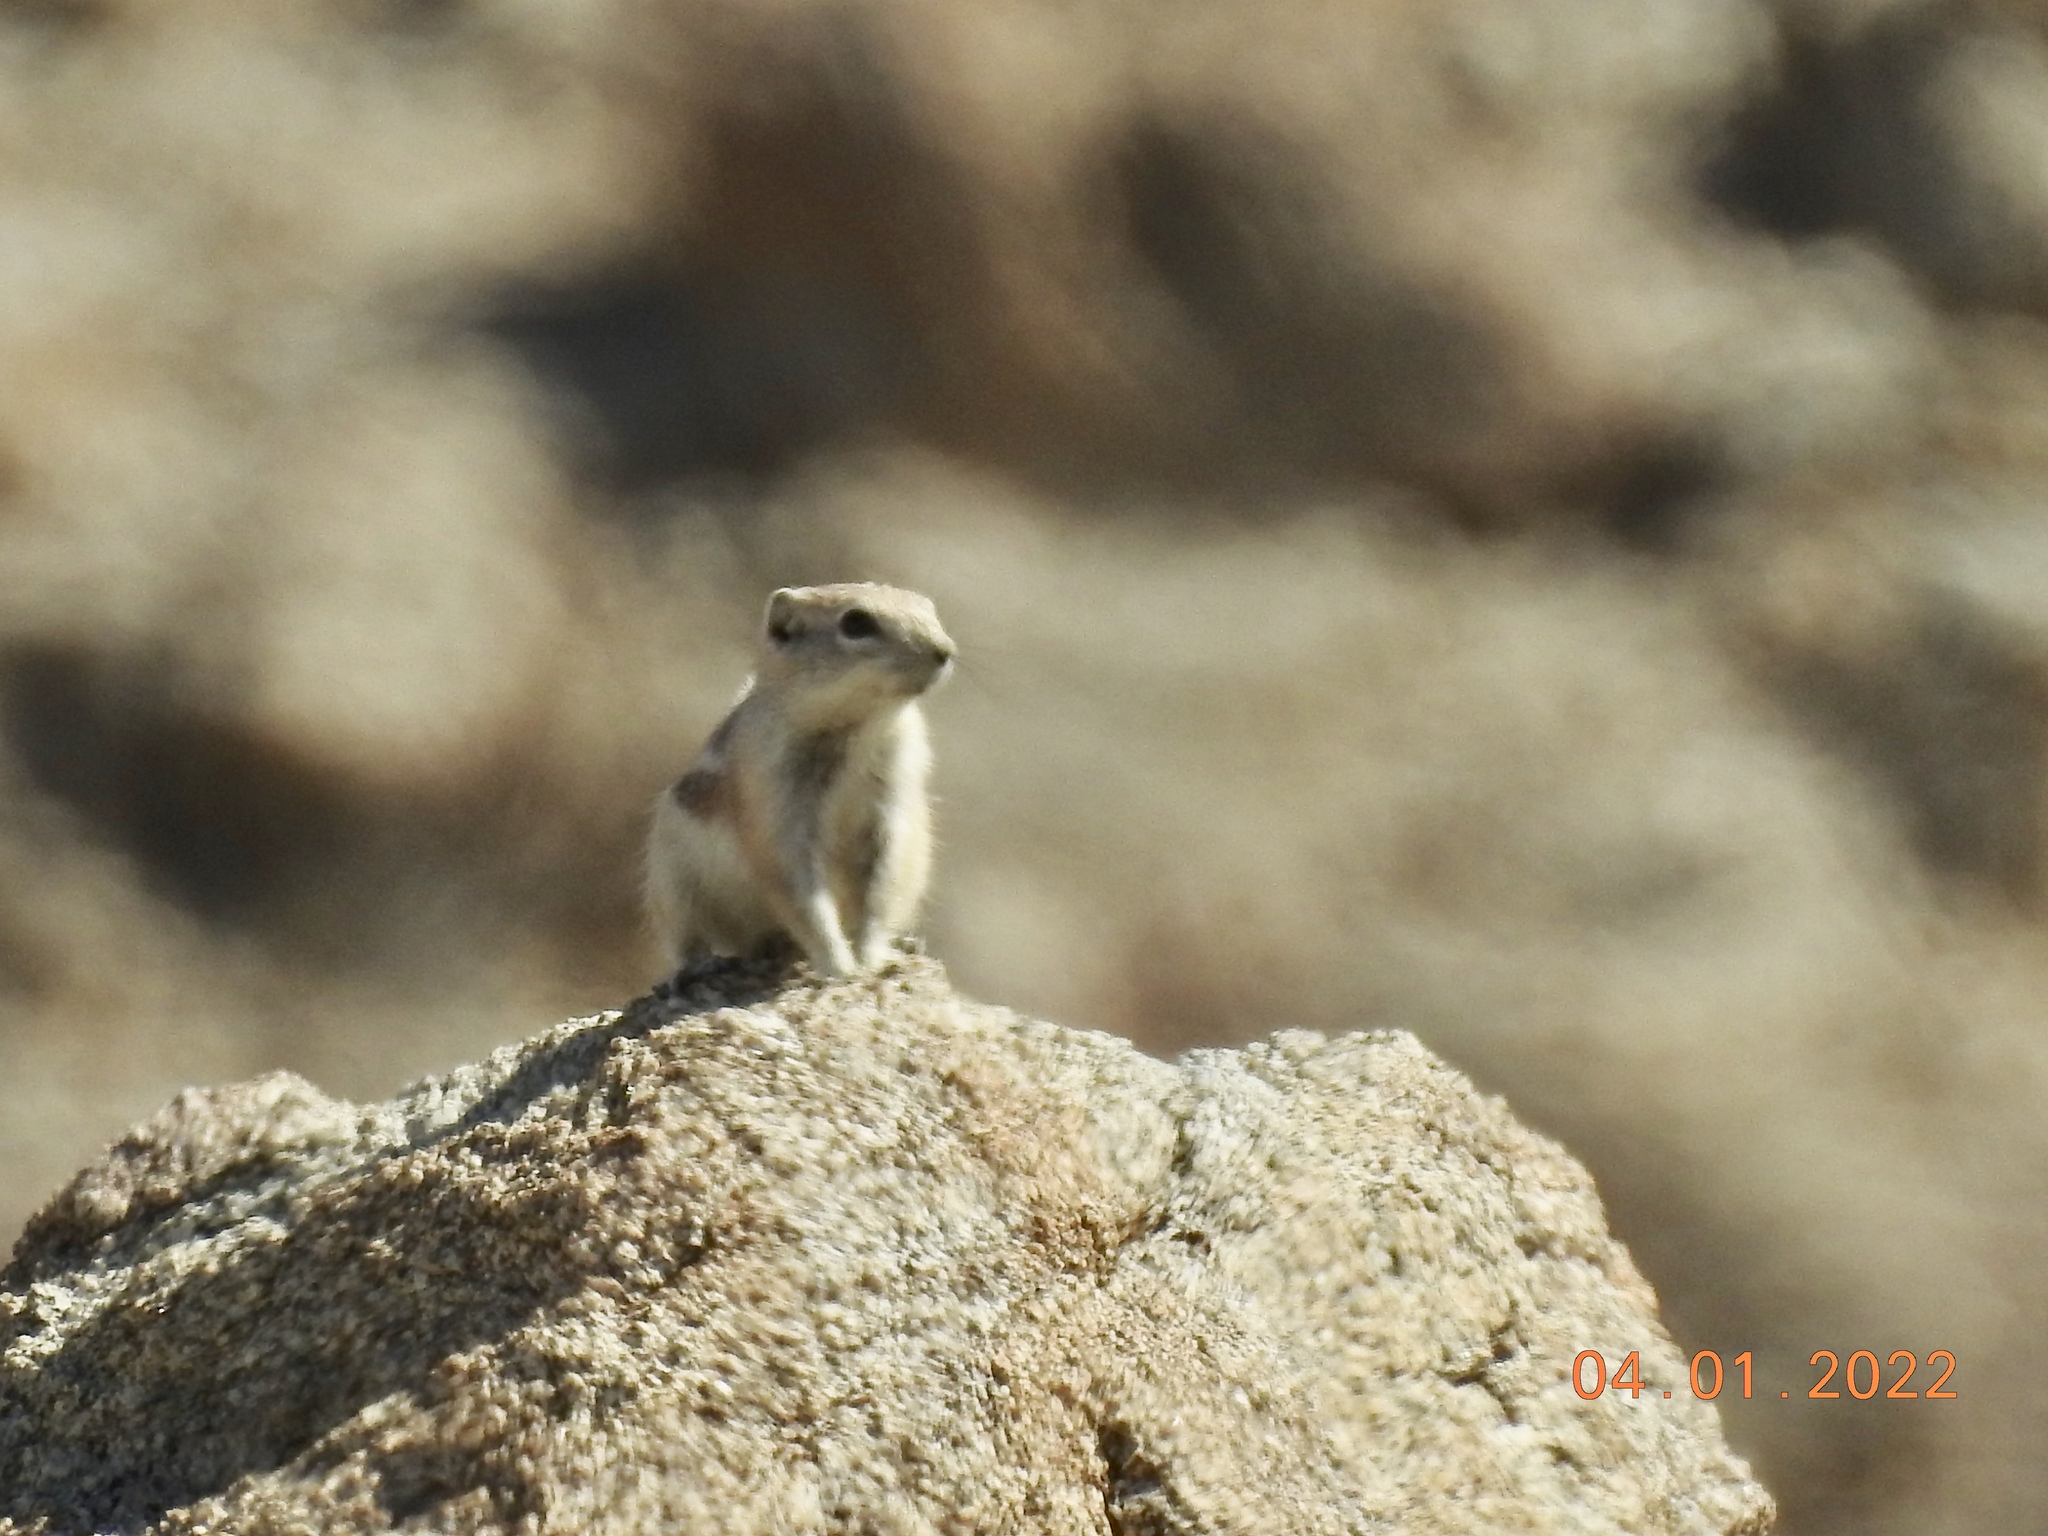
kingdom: Animalia
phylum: Chordata
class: Mammalia
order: Rodentia
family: Sciuridae
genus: Ammospermophilus
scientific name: Ammospermophilus leucurus
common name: White-tailed antelope squirrel
